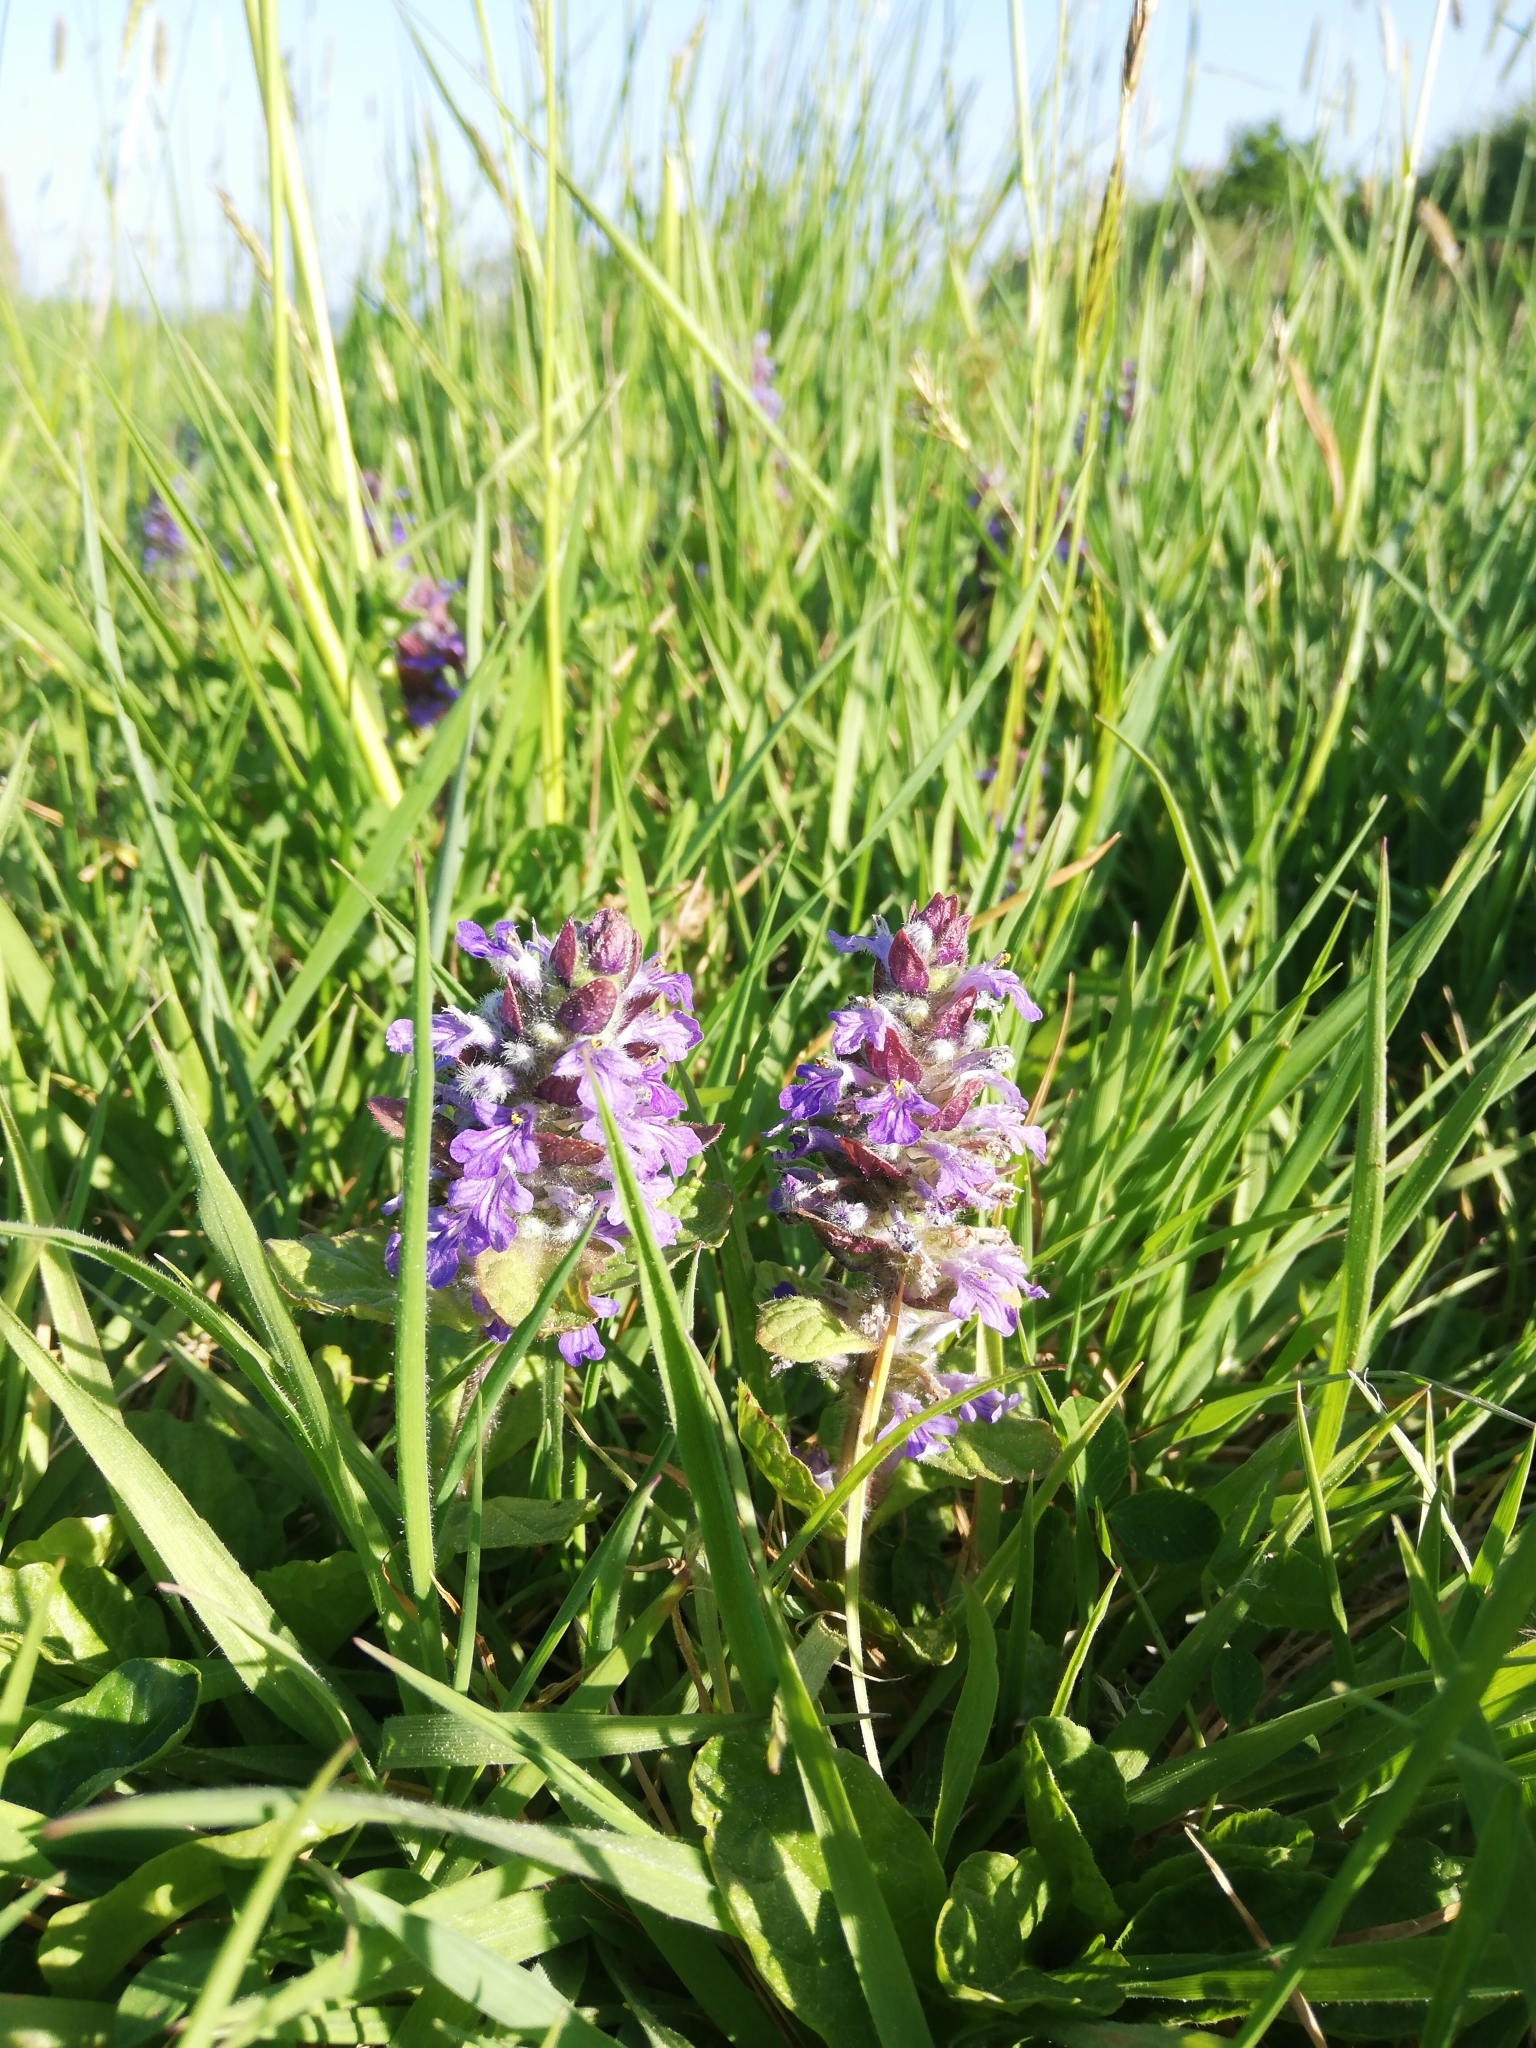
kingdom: Plantae
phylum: Tracheophyta
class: Magnoliopsida
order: Lamiales
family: Lamiaceae
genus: Ajuga
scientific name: Ajuga reptans
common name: Bugle
